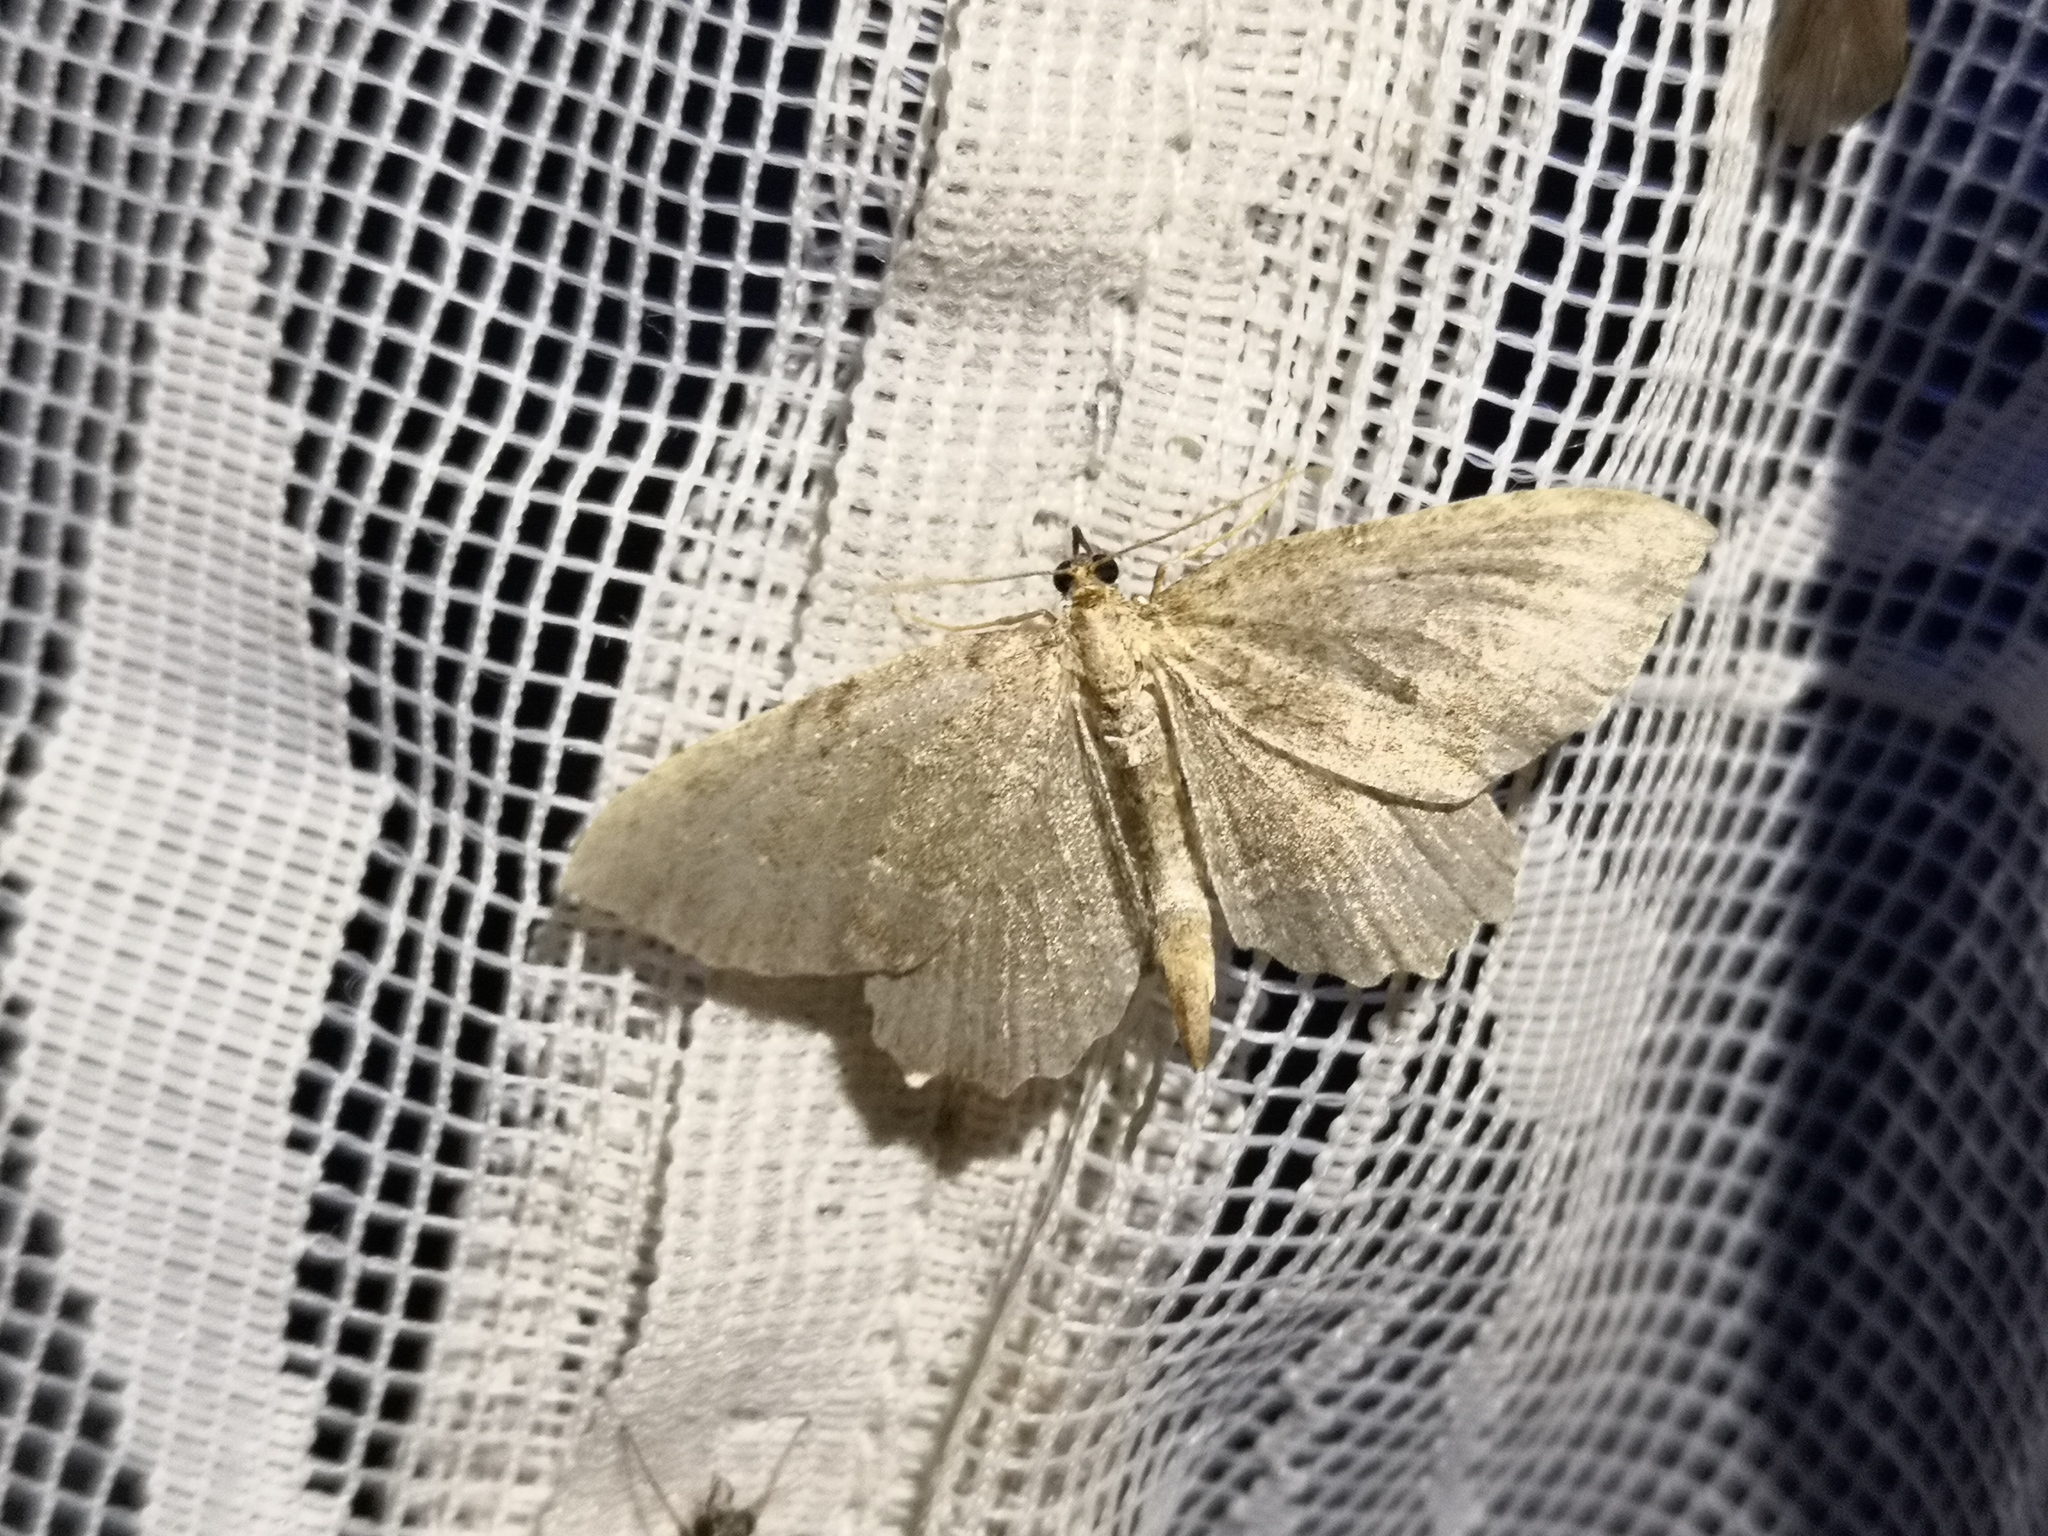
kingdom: Animalia
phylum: Arthropoda
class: Insecta
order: Lepidoptera
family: Geometridae
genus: Philereme
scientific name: Philereme vetulata
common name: Brown scallop
